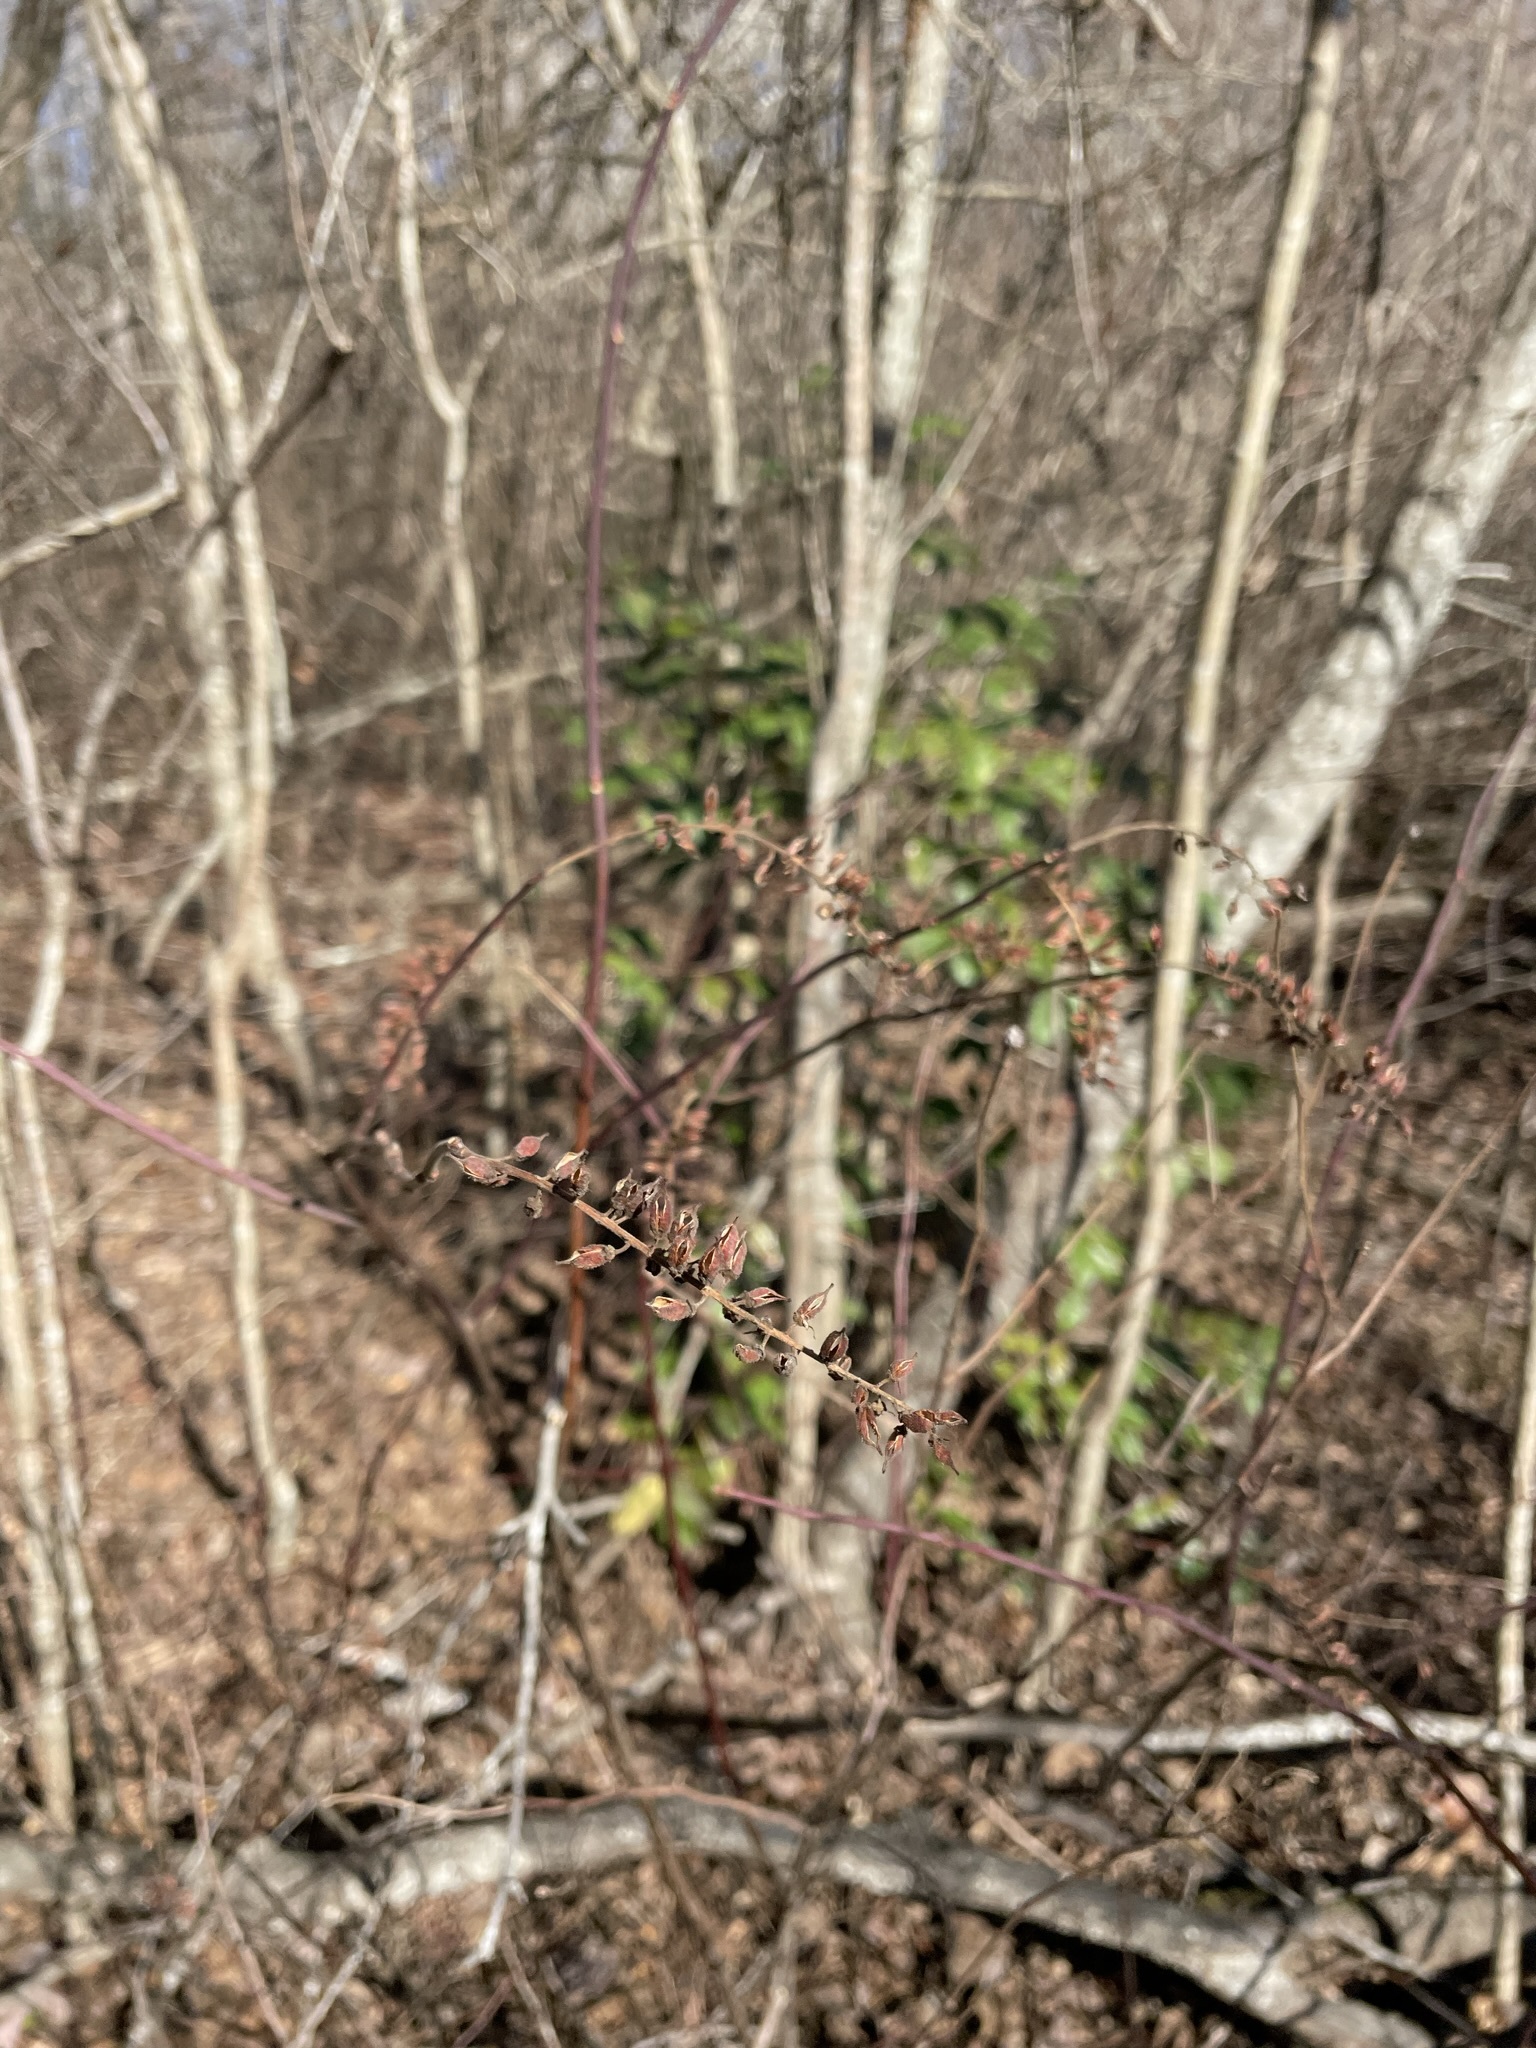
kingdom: Plantae
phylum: Tracheophyta
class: Magnoliopsida
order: Saxifragales
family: Iteaceae
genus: Itea
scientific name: Itea virginica
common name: Sweetspire
